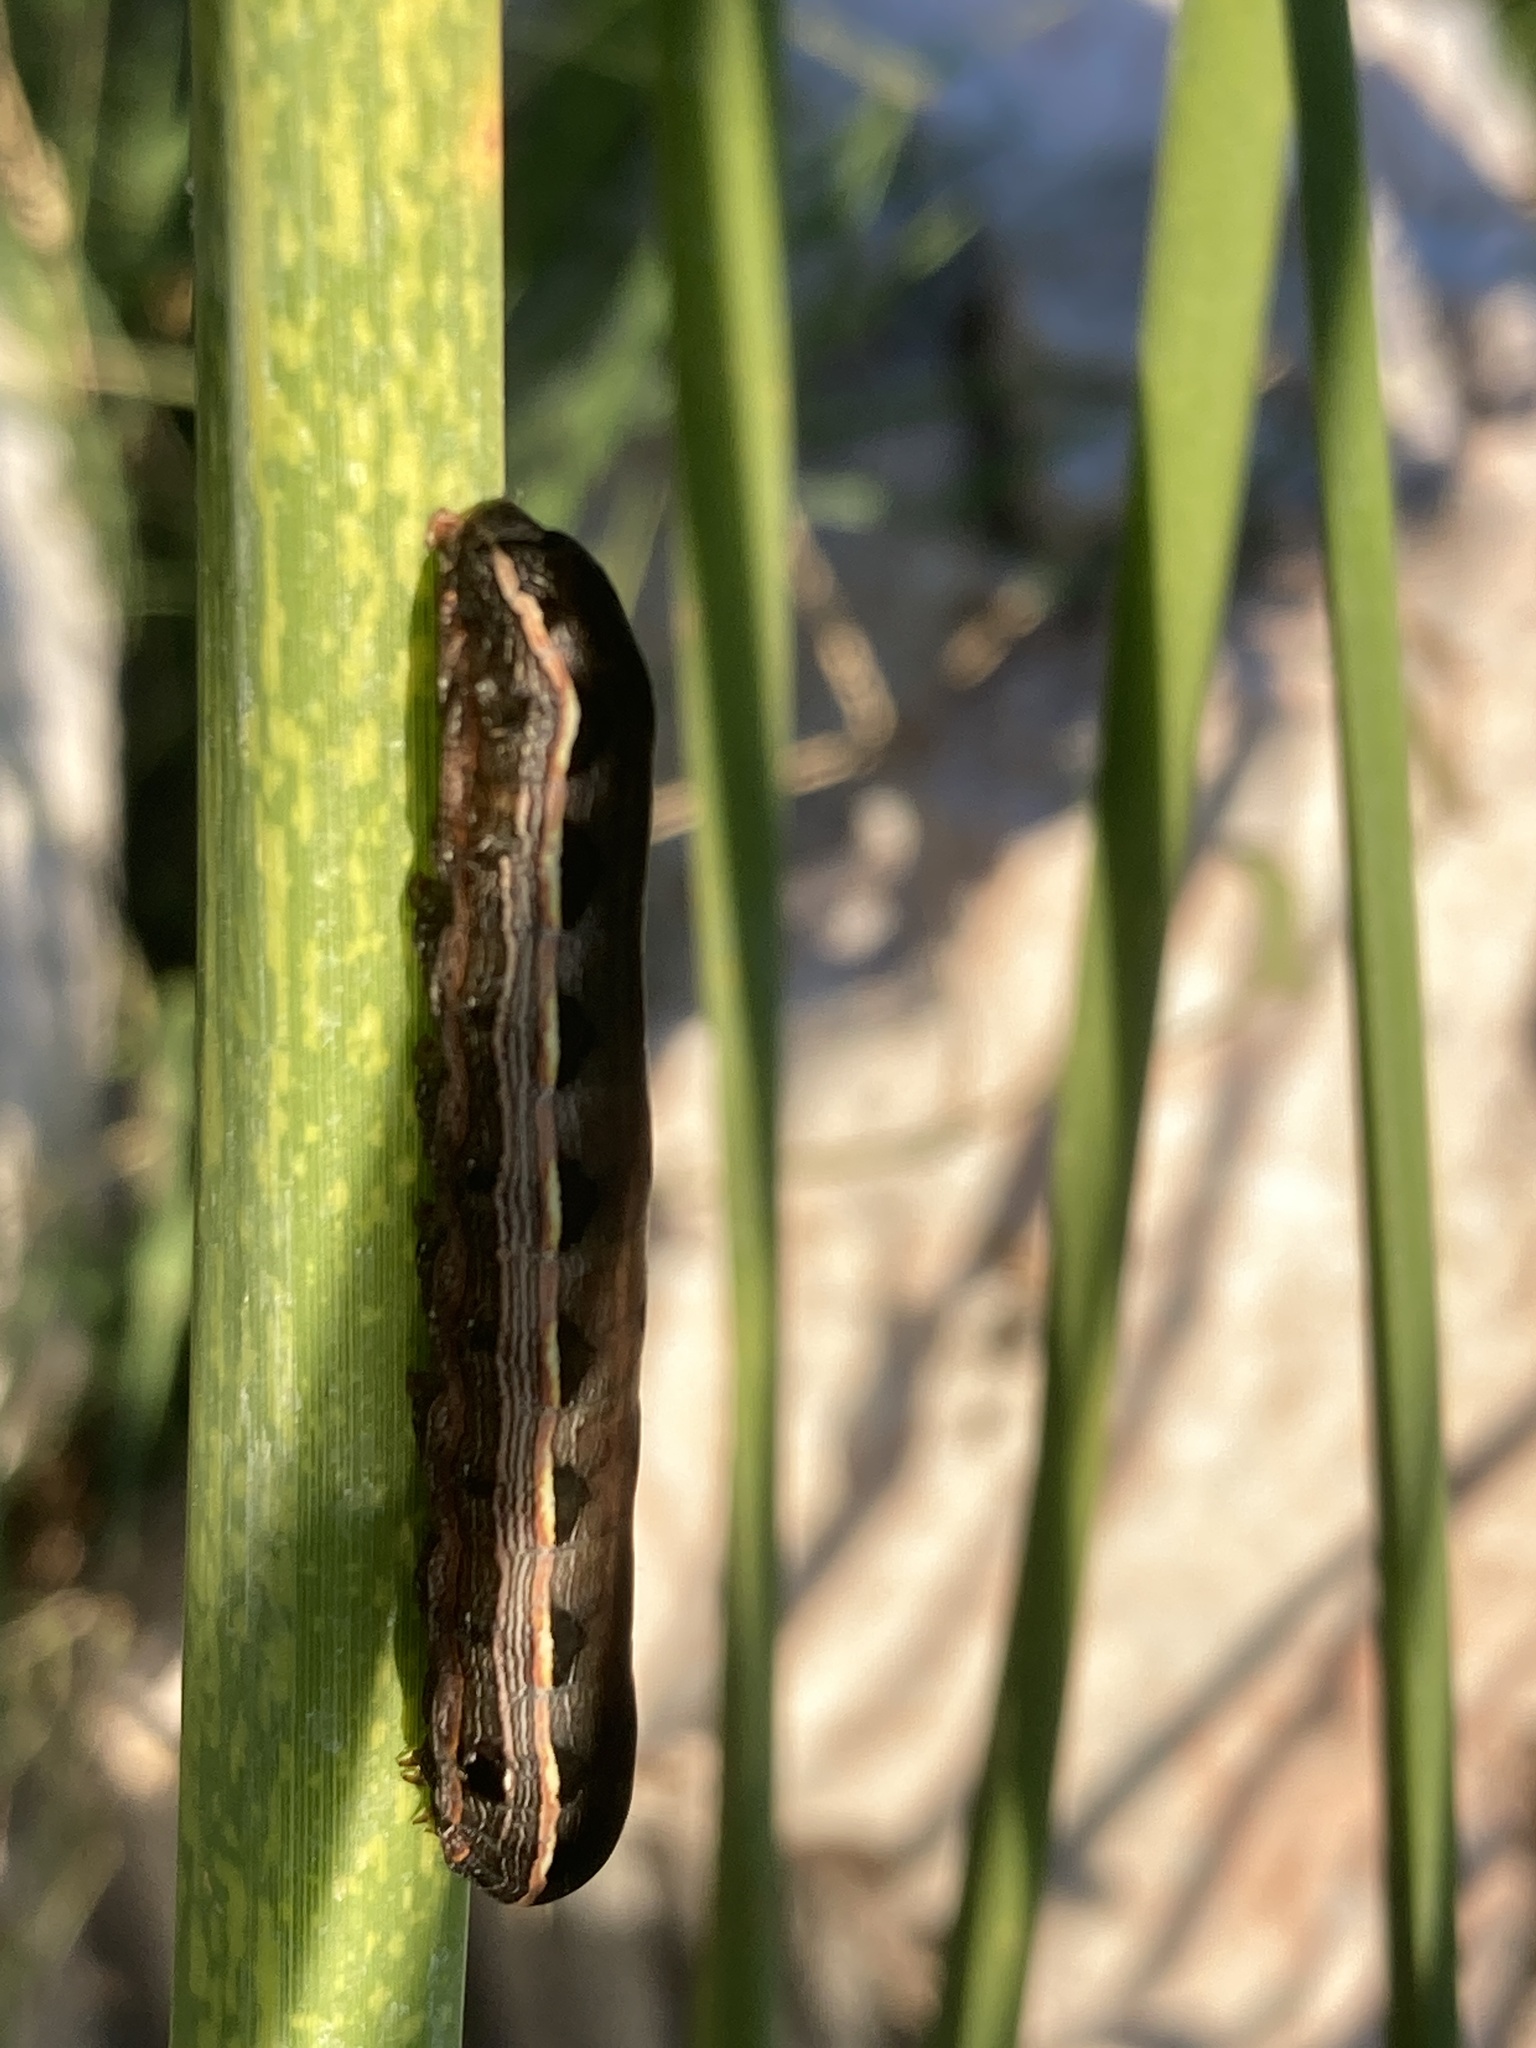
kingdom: Animalia
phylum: Arthropoda
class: Insecta
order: Lepidoptera
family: Noctuidae
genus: Spodoptera
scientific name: Spodoptera ornithogalli
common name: Yellow-striped armyworm
